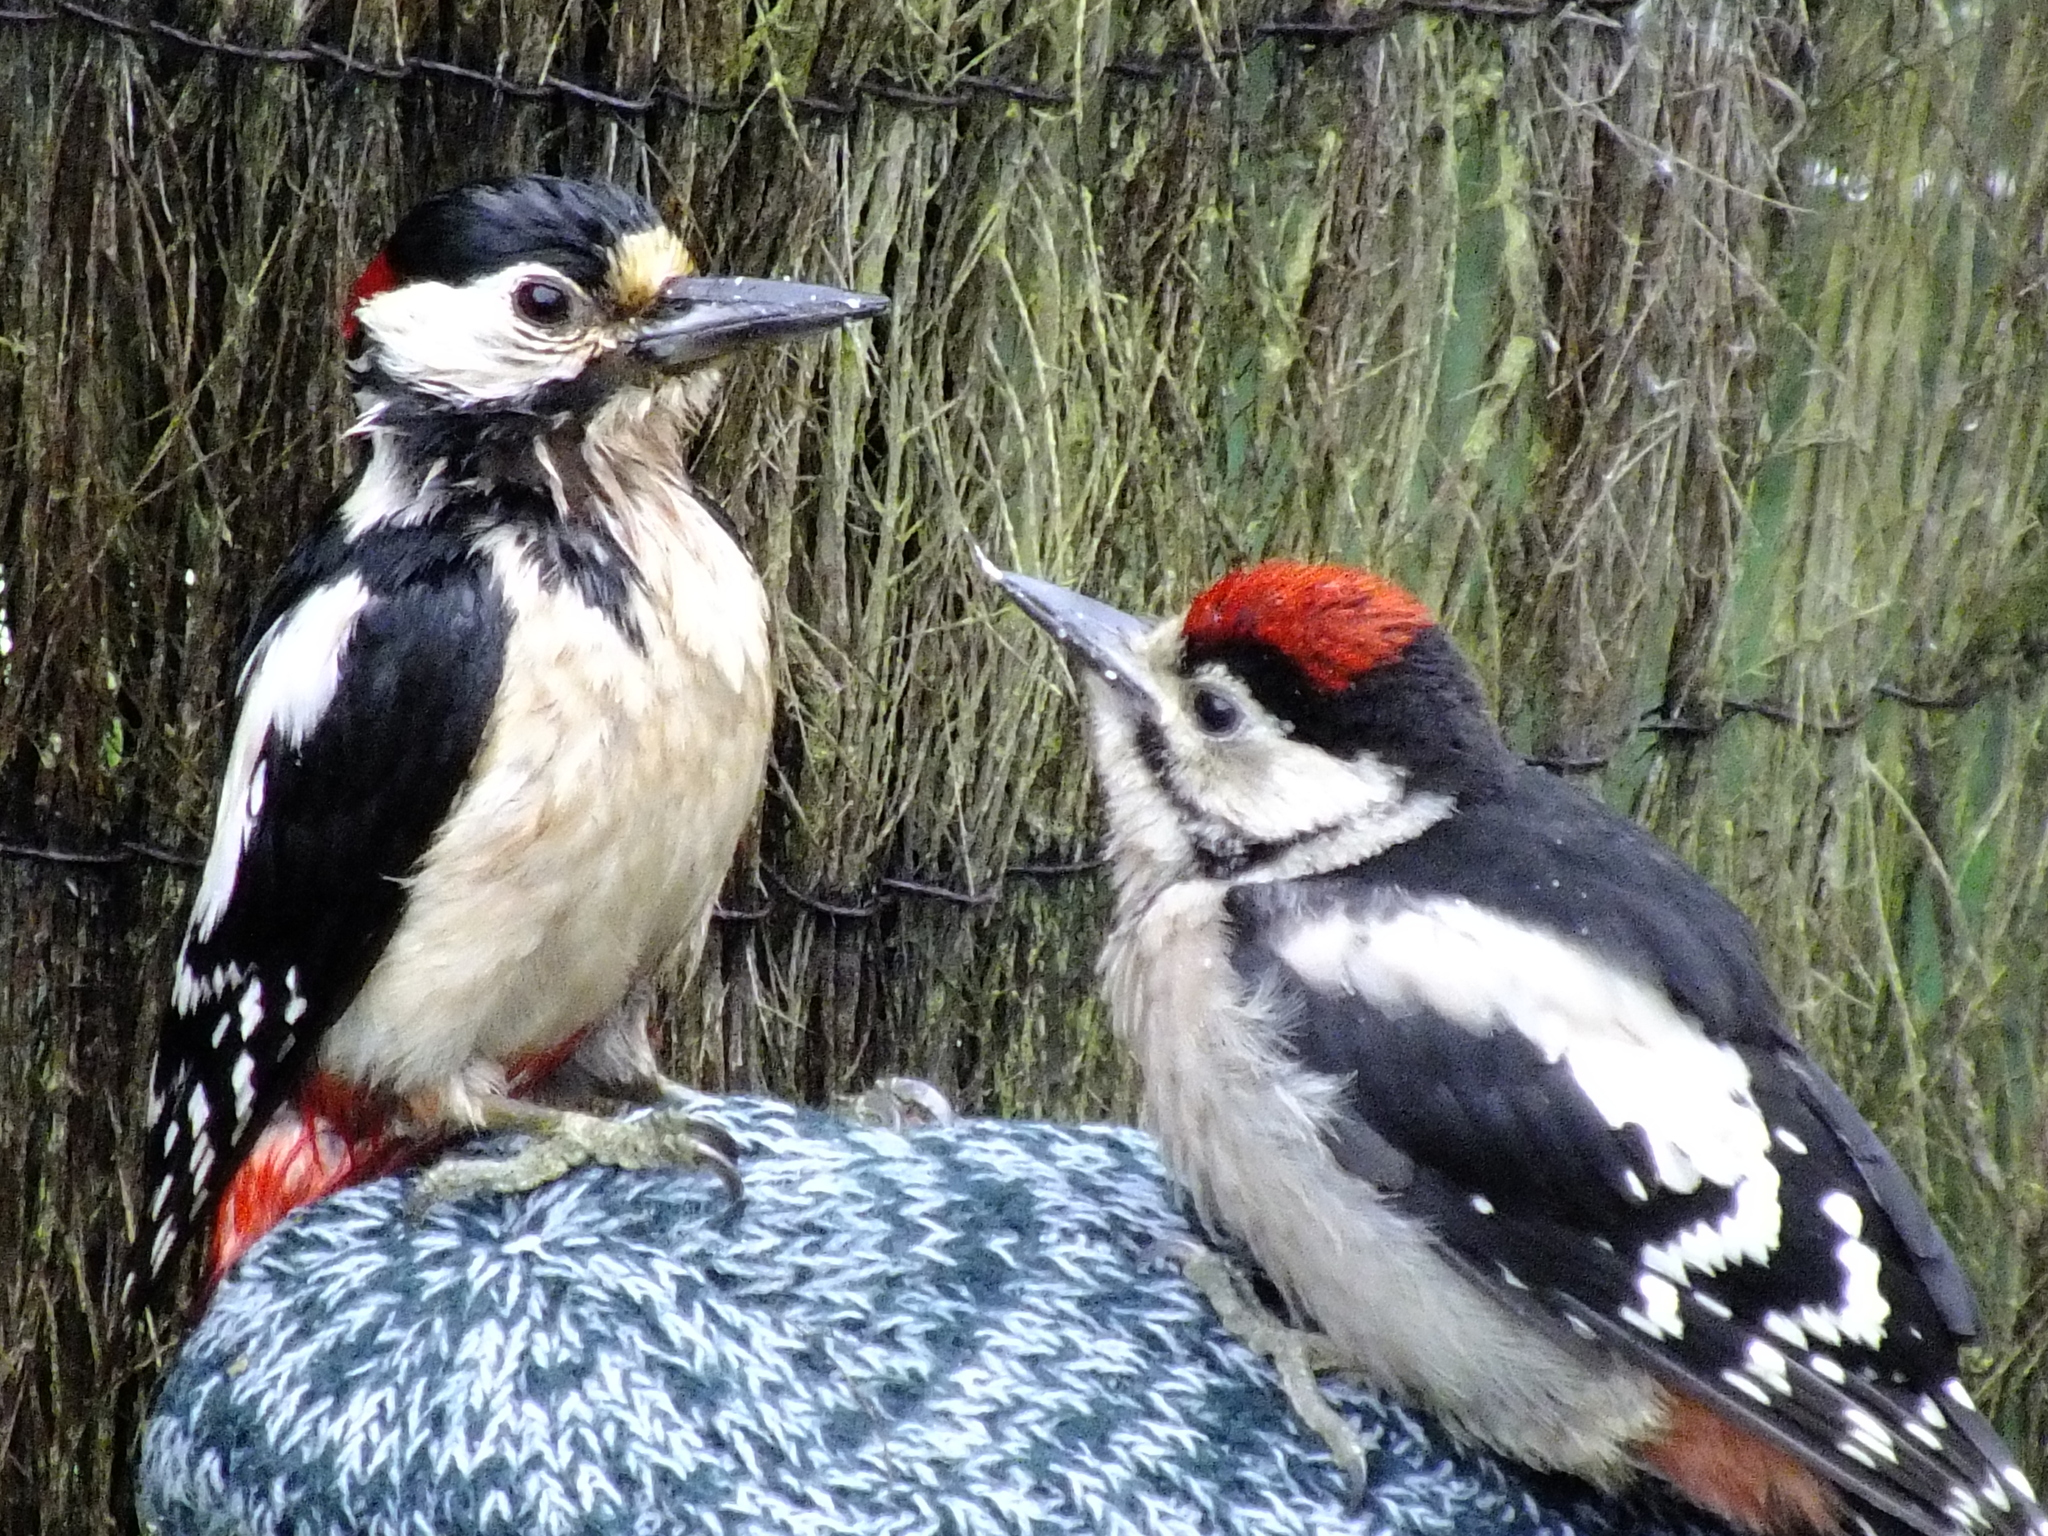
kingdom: Animalia
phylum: Chordata
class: Aves
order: Piciformes
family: Picidae
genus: Dendrocopos
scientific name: Dendrocopos major
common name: Great spotted woodpecker
